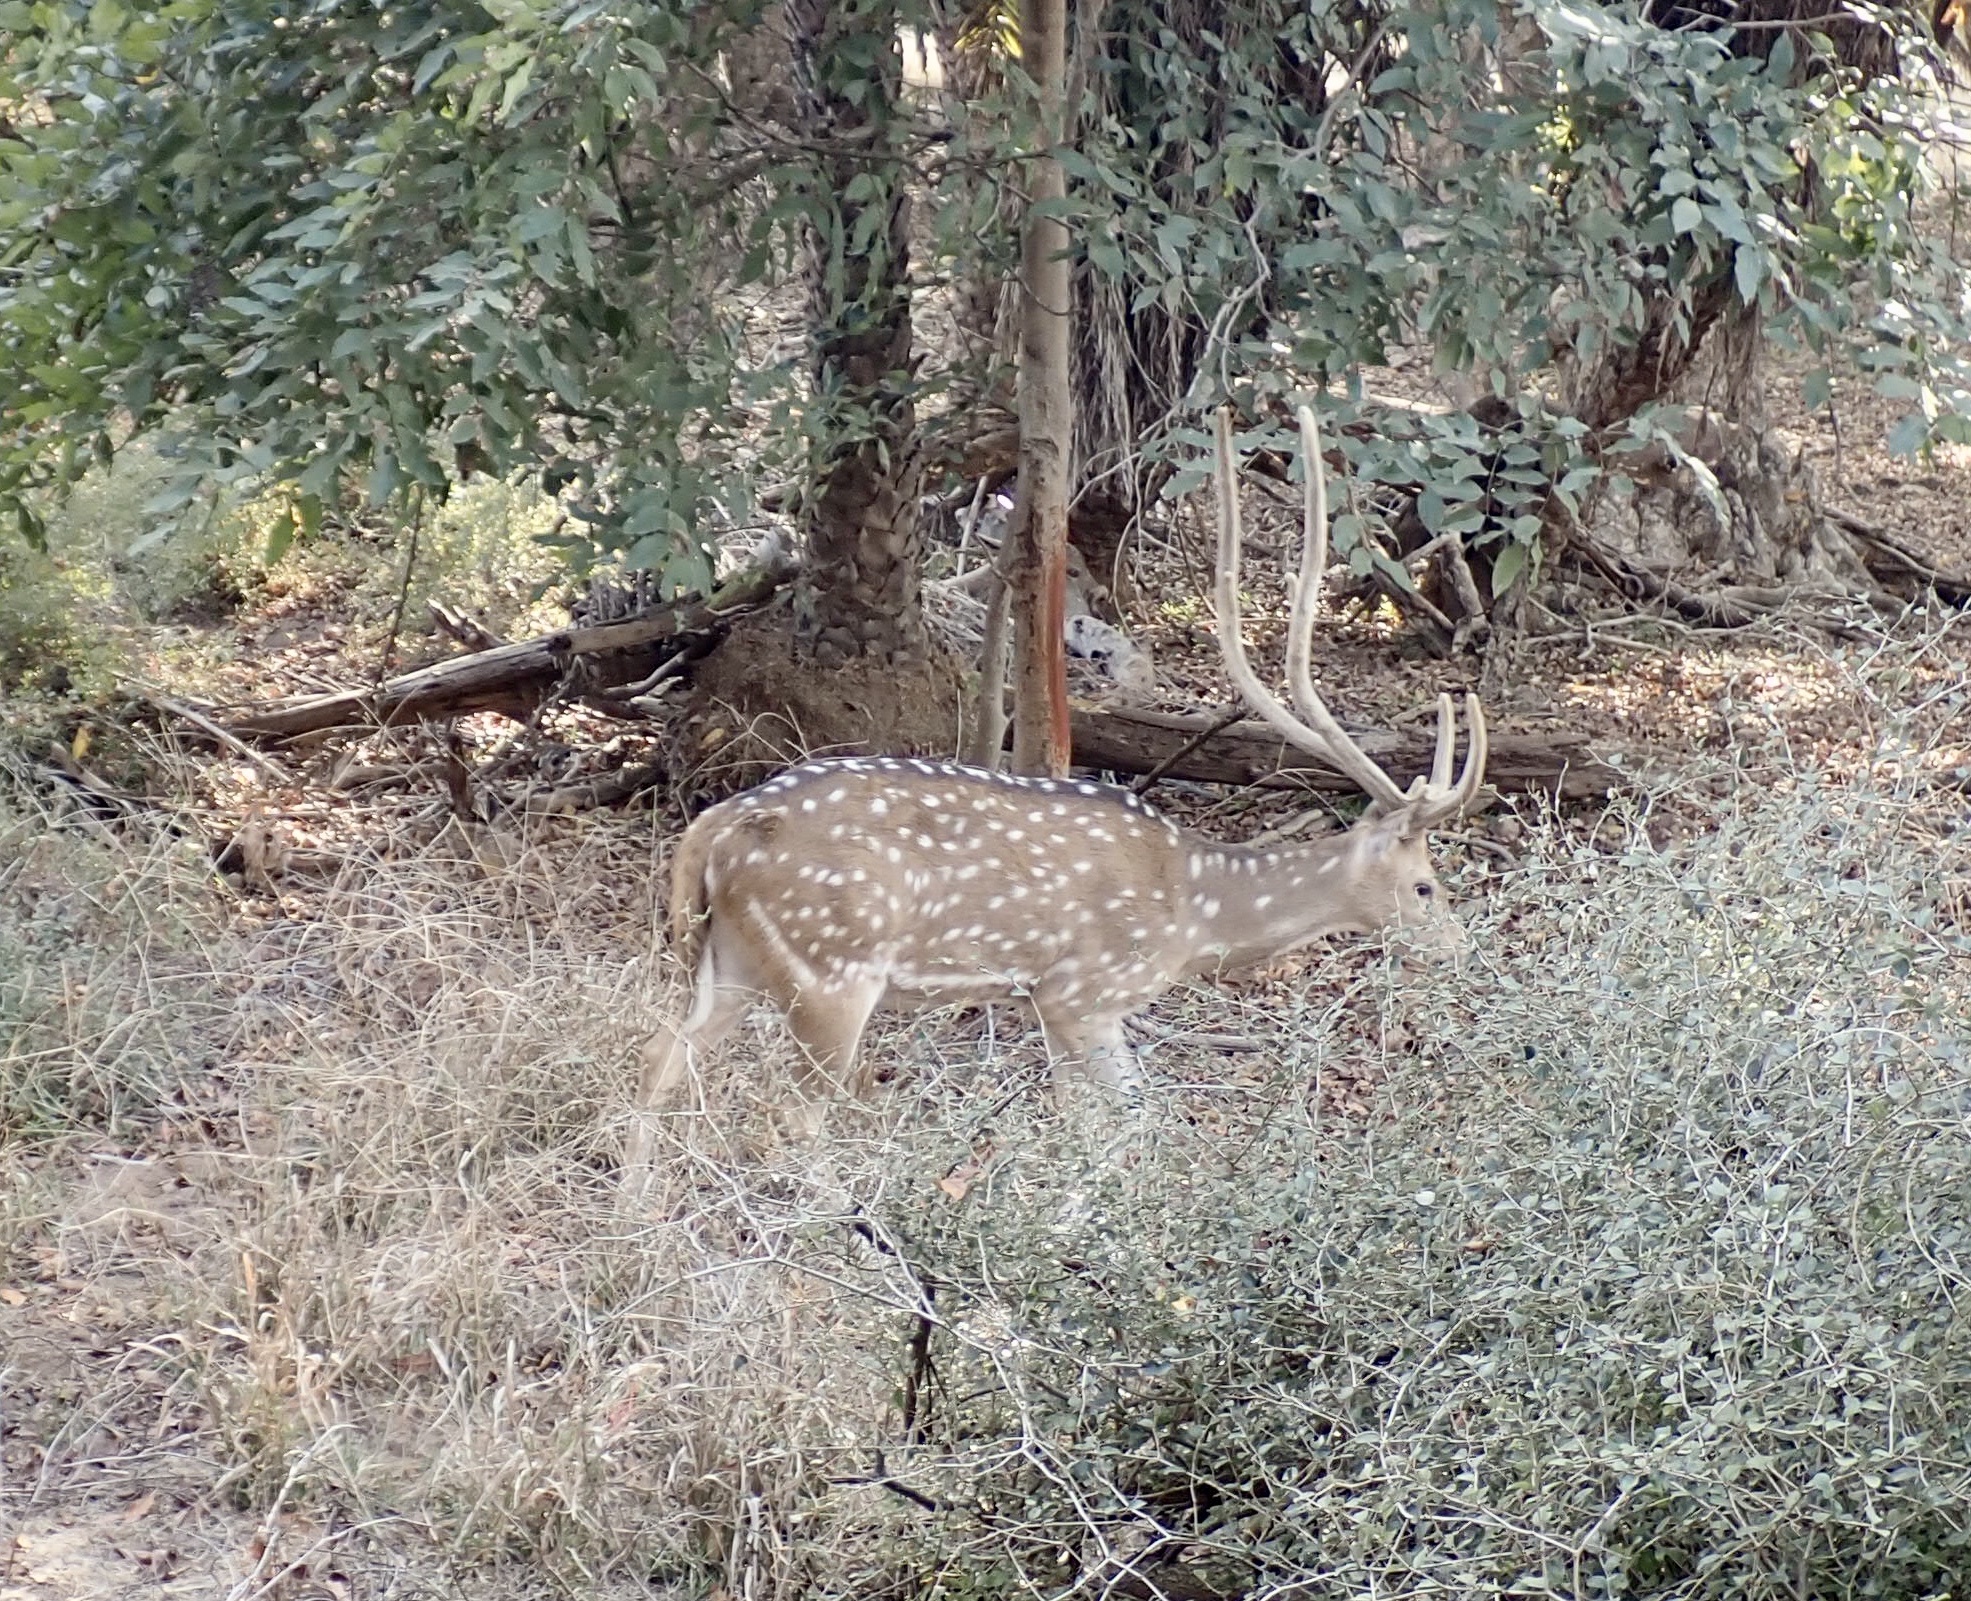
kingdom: Animalia
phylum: Chordata
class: Mammalia
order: Artiodactyla
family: Cervidae
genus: Axis
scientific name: Axis axis
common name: Chital
